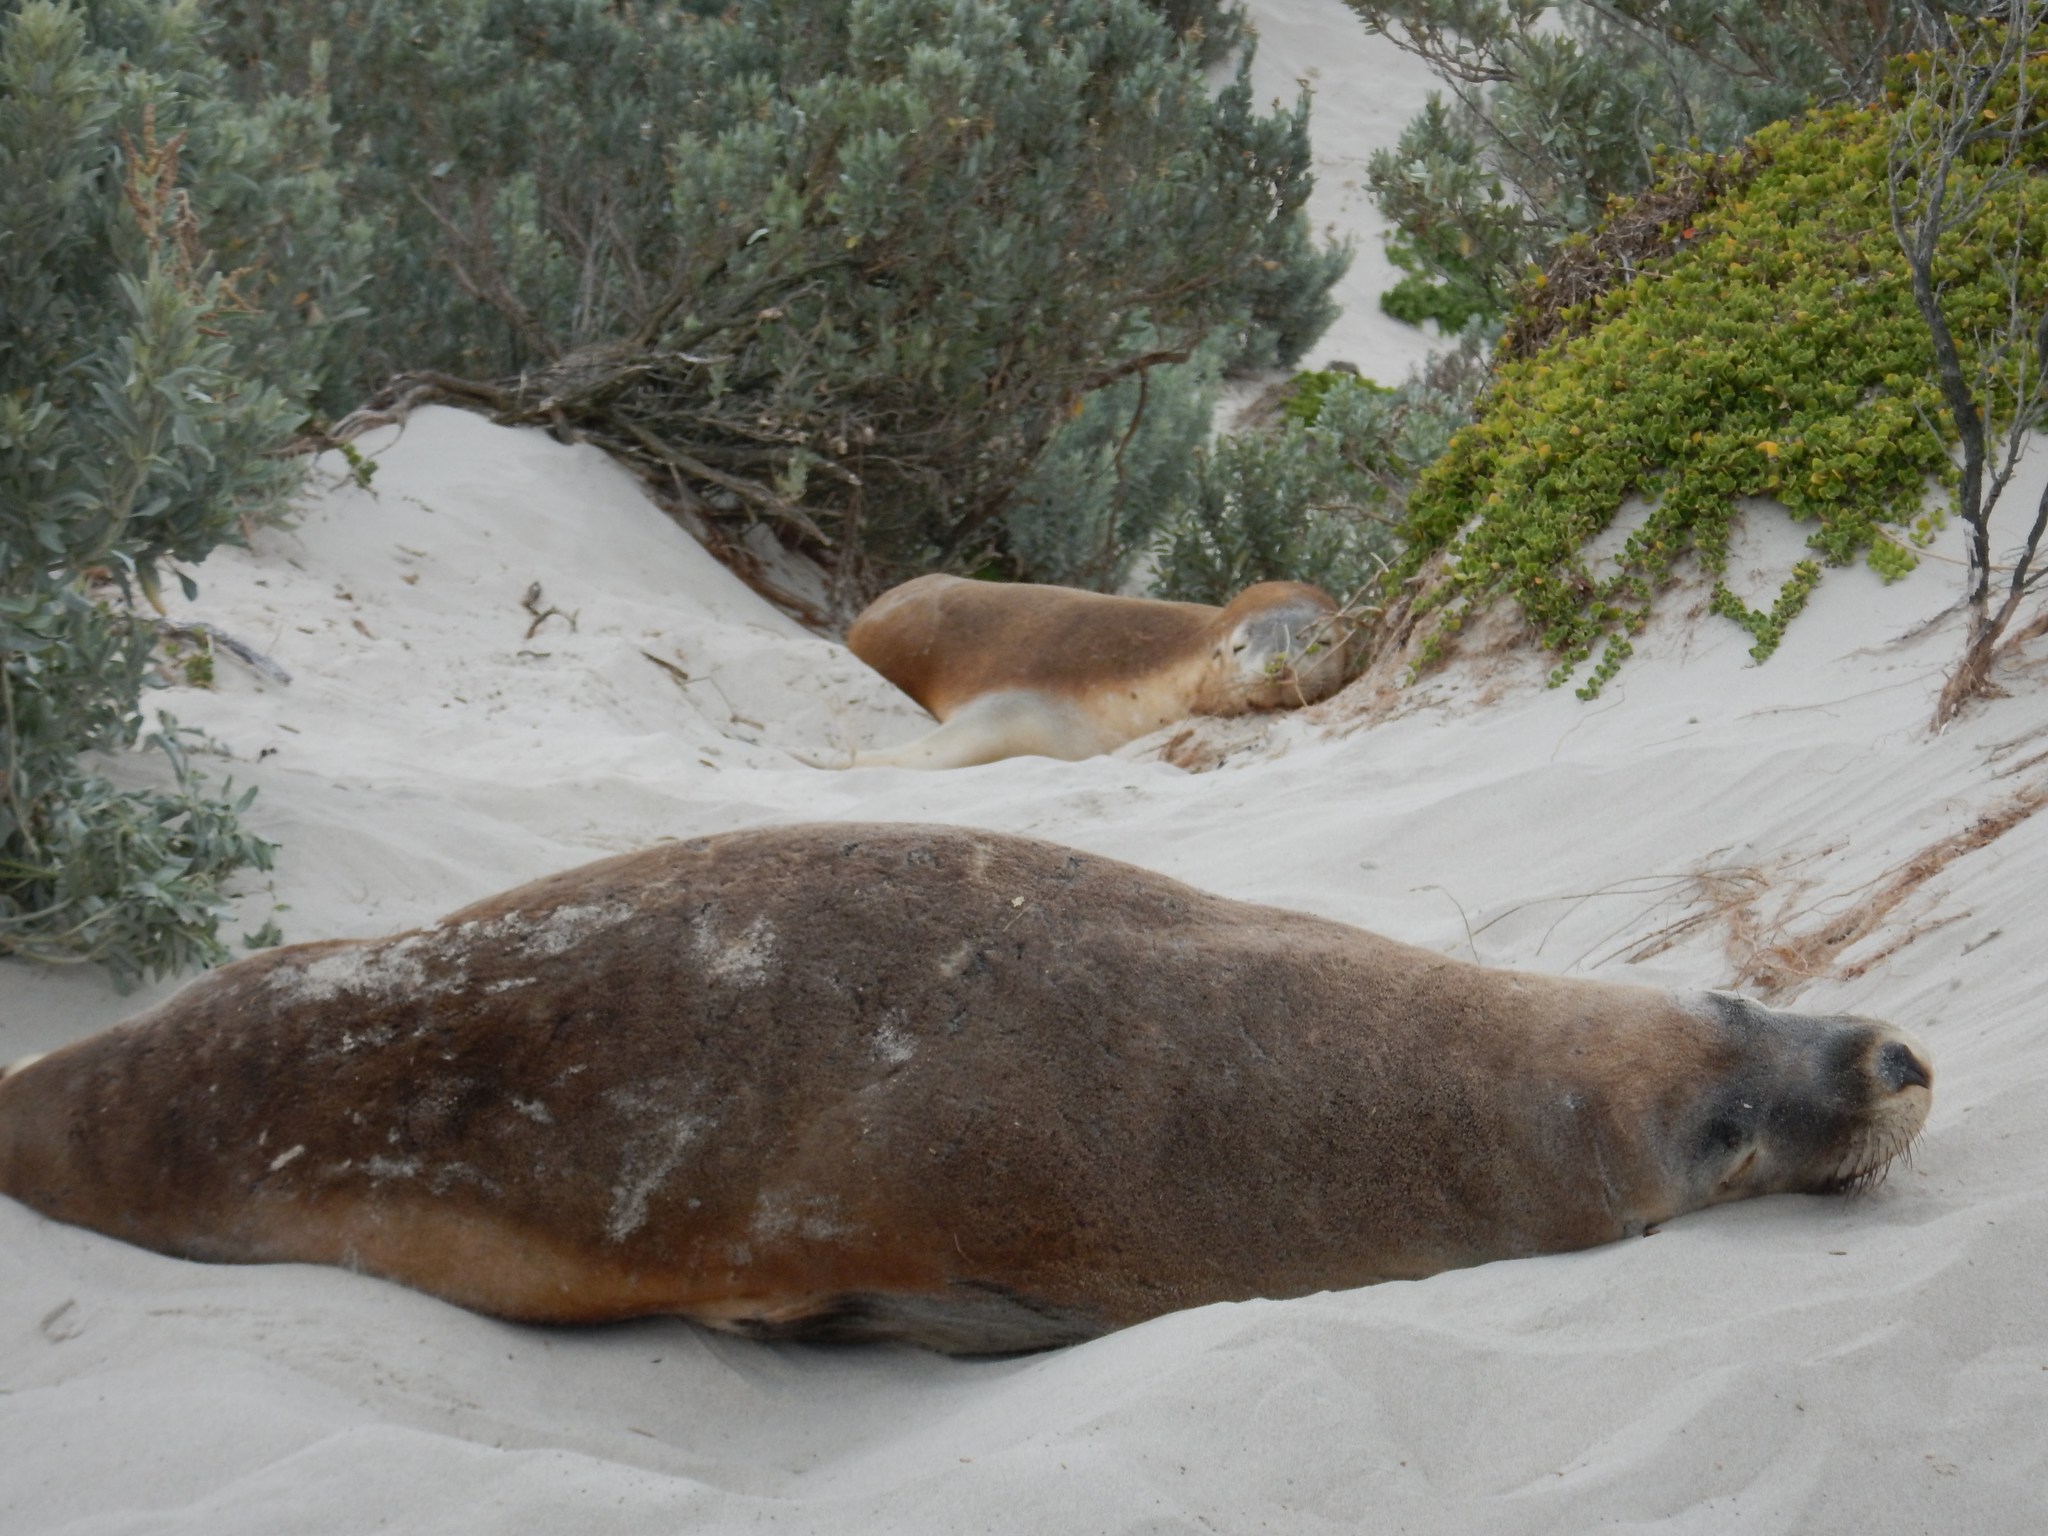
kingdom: Animalia
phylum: Chordata
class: Mammalia
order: Carnivora
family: Otariidae
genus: Neophoca
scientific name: Neophoca cinerea
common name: Australian sea lion
